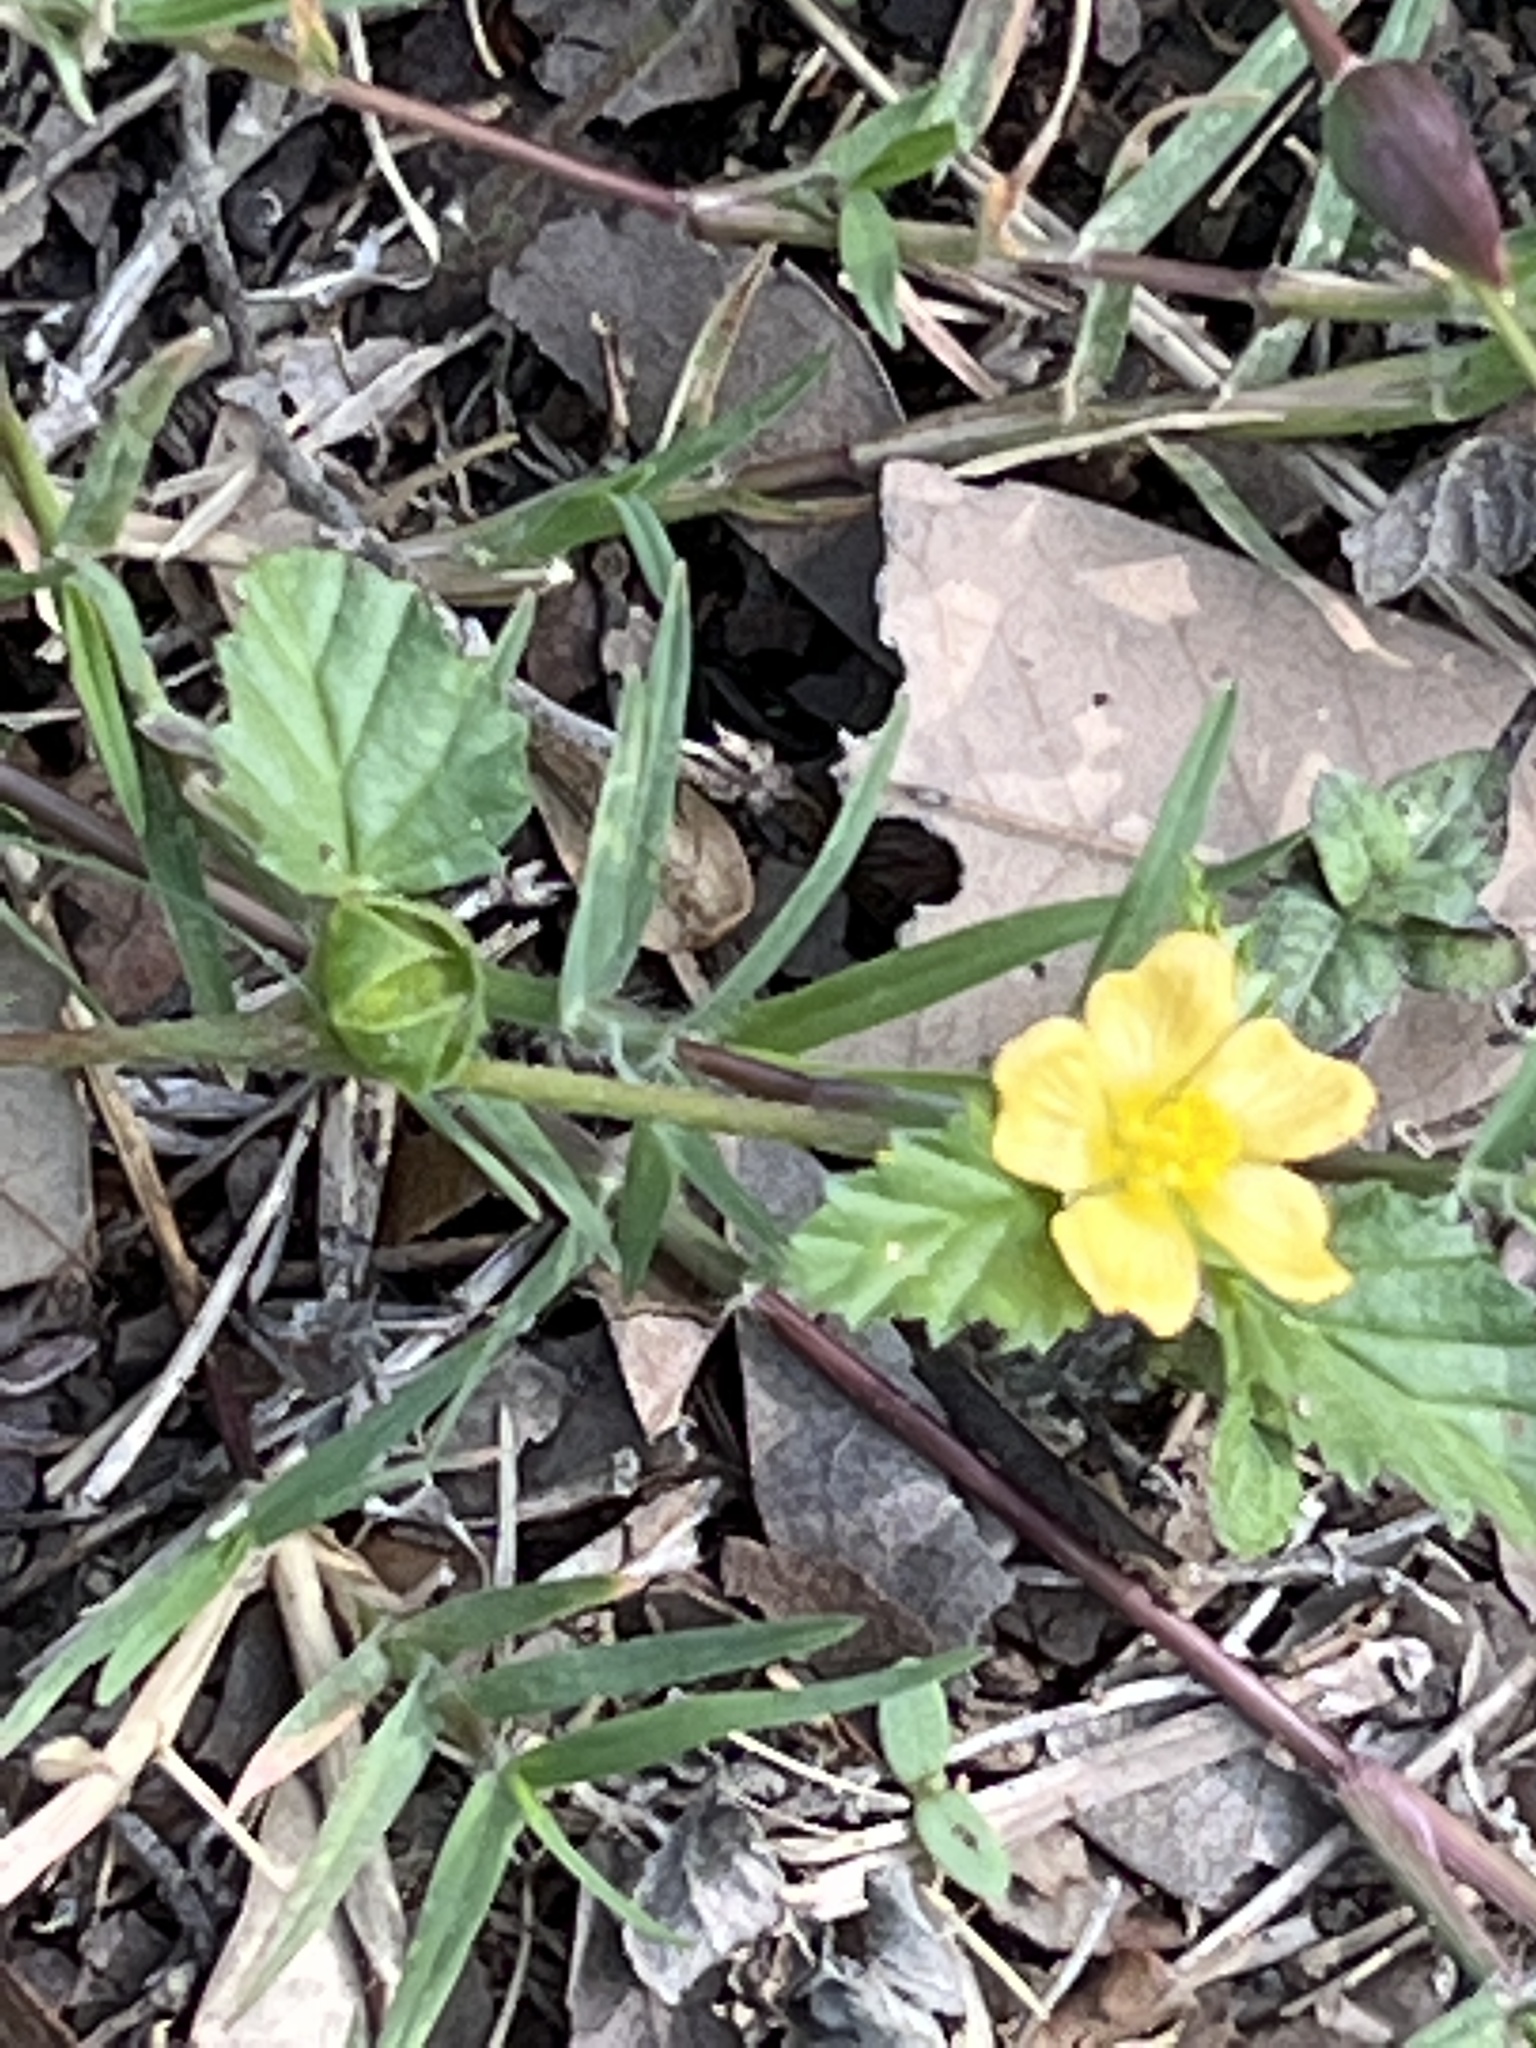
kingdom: Plantae
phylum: Tracheophyta
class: Magnoliopsida
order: Malvales
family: Malvaceae
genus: Malvastrum
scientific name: Malvastrum coromandelianum
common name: Threelobe false mallow
